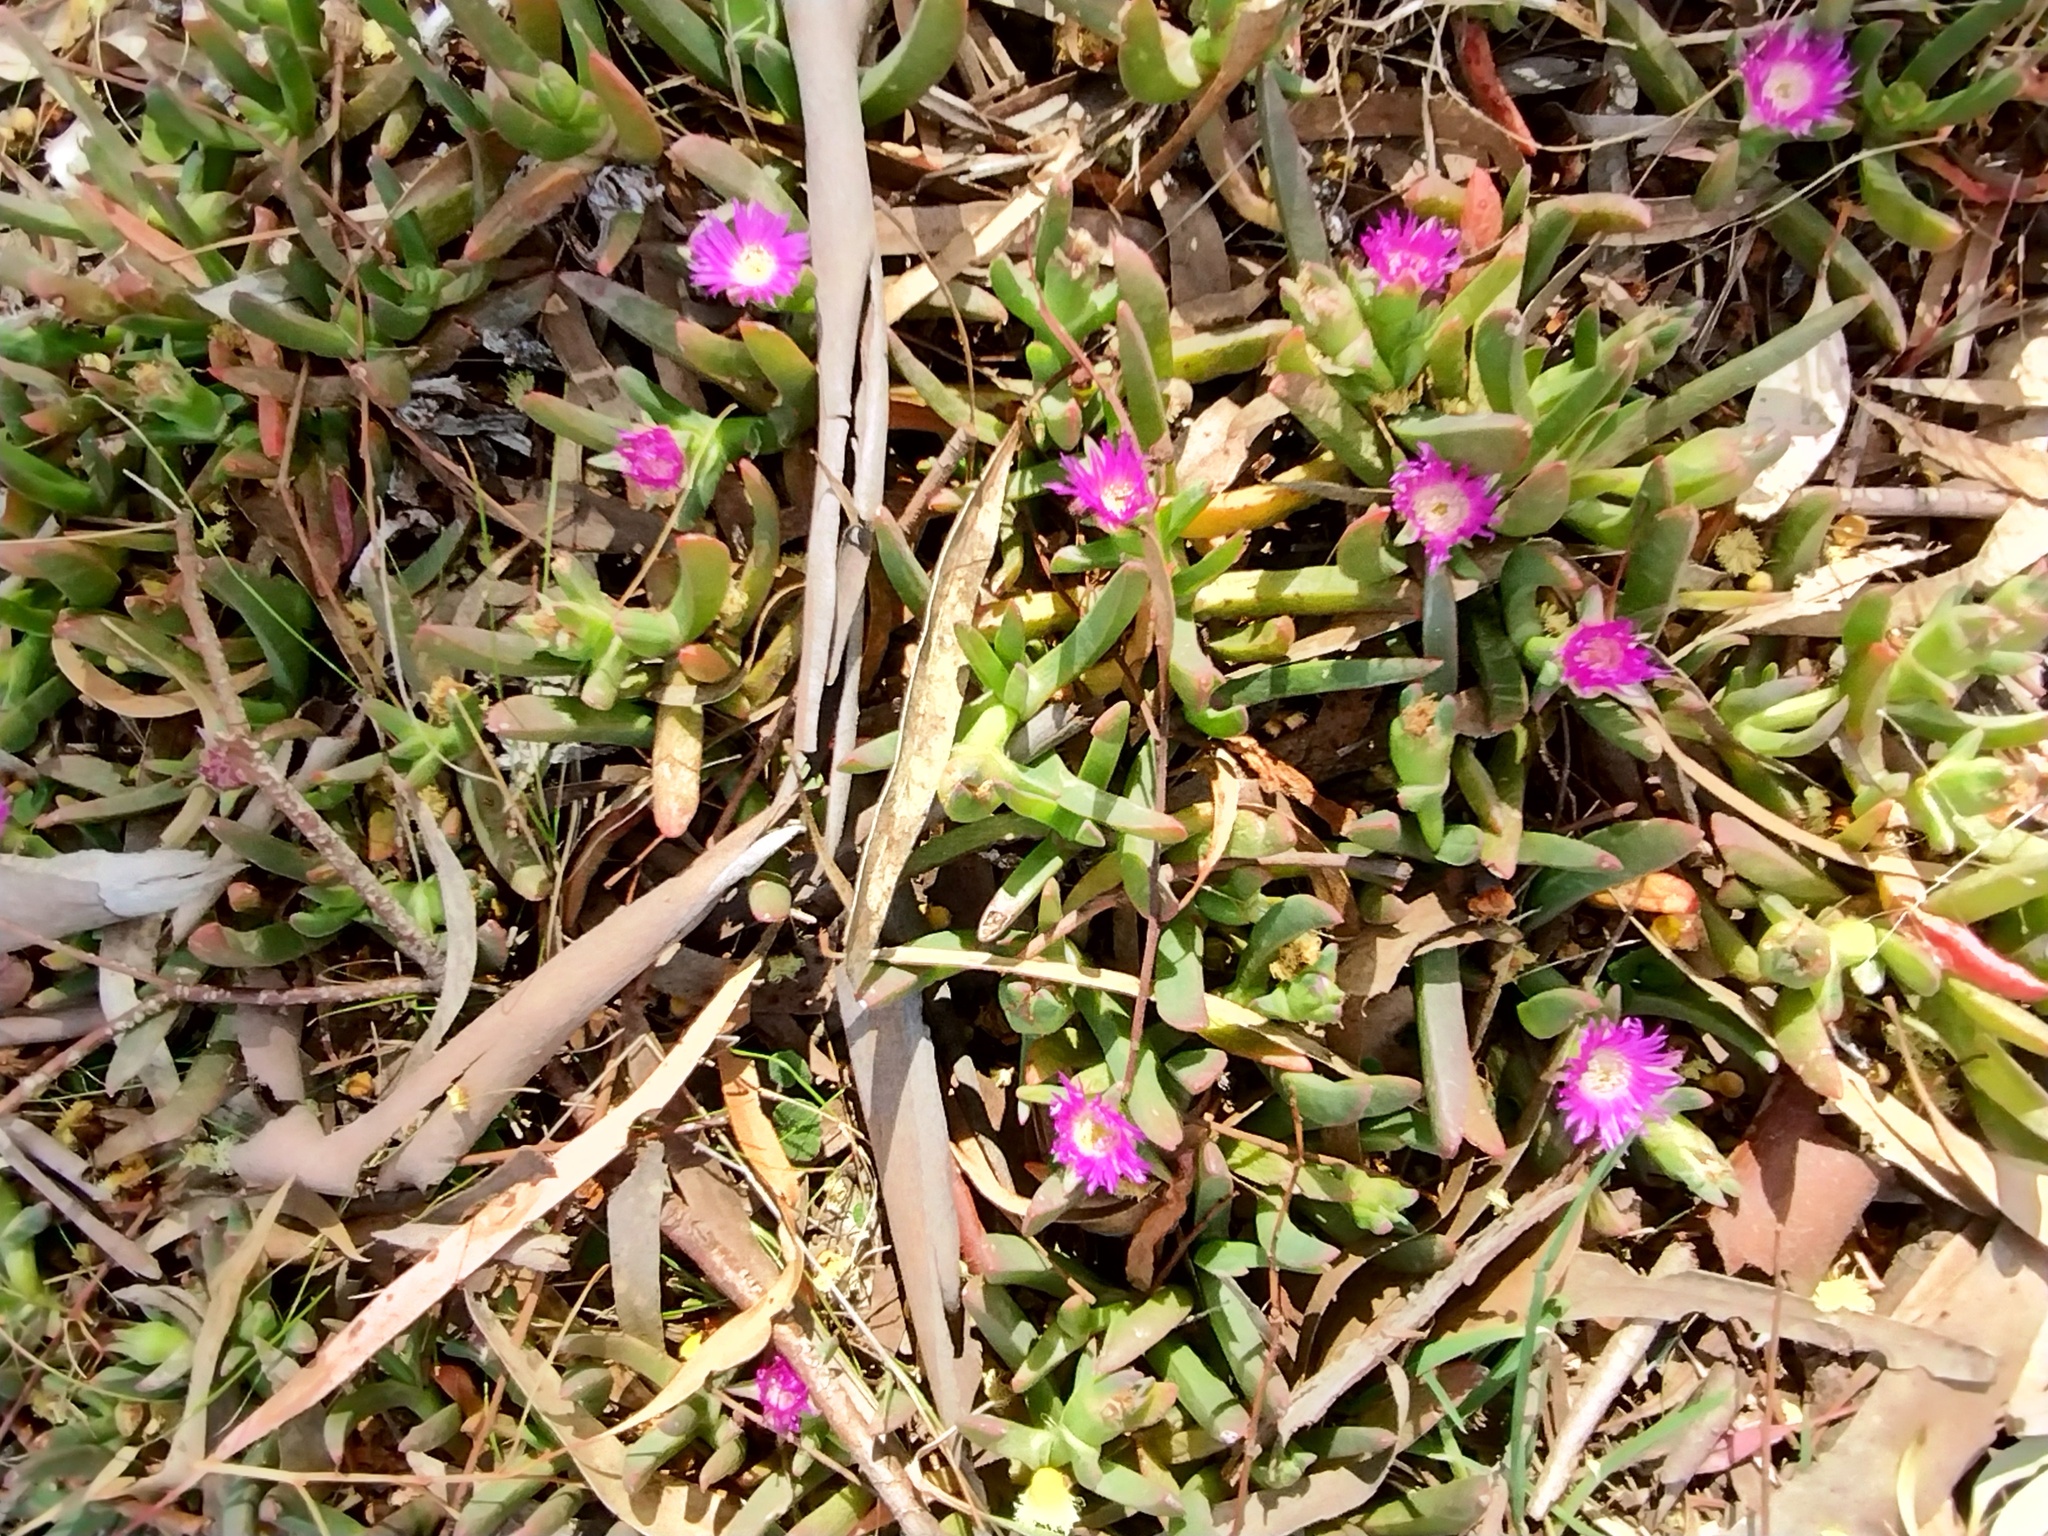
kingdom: Plantae
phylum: Tracheophyta
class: Magnoliopsida
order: Caryophyllales
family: Aizoaceae
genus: Carpobrotus
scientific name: Carpobrotus modestus
